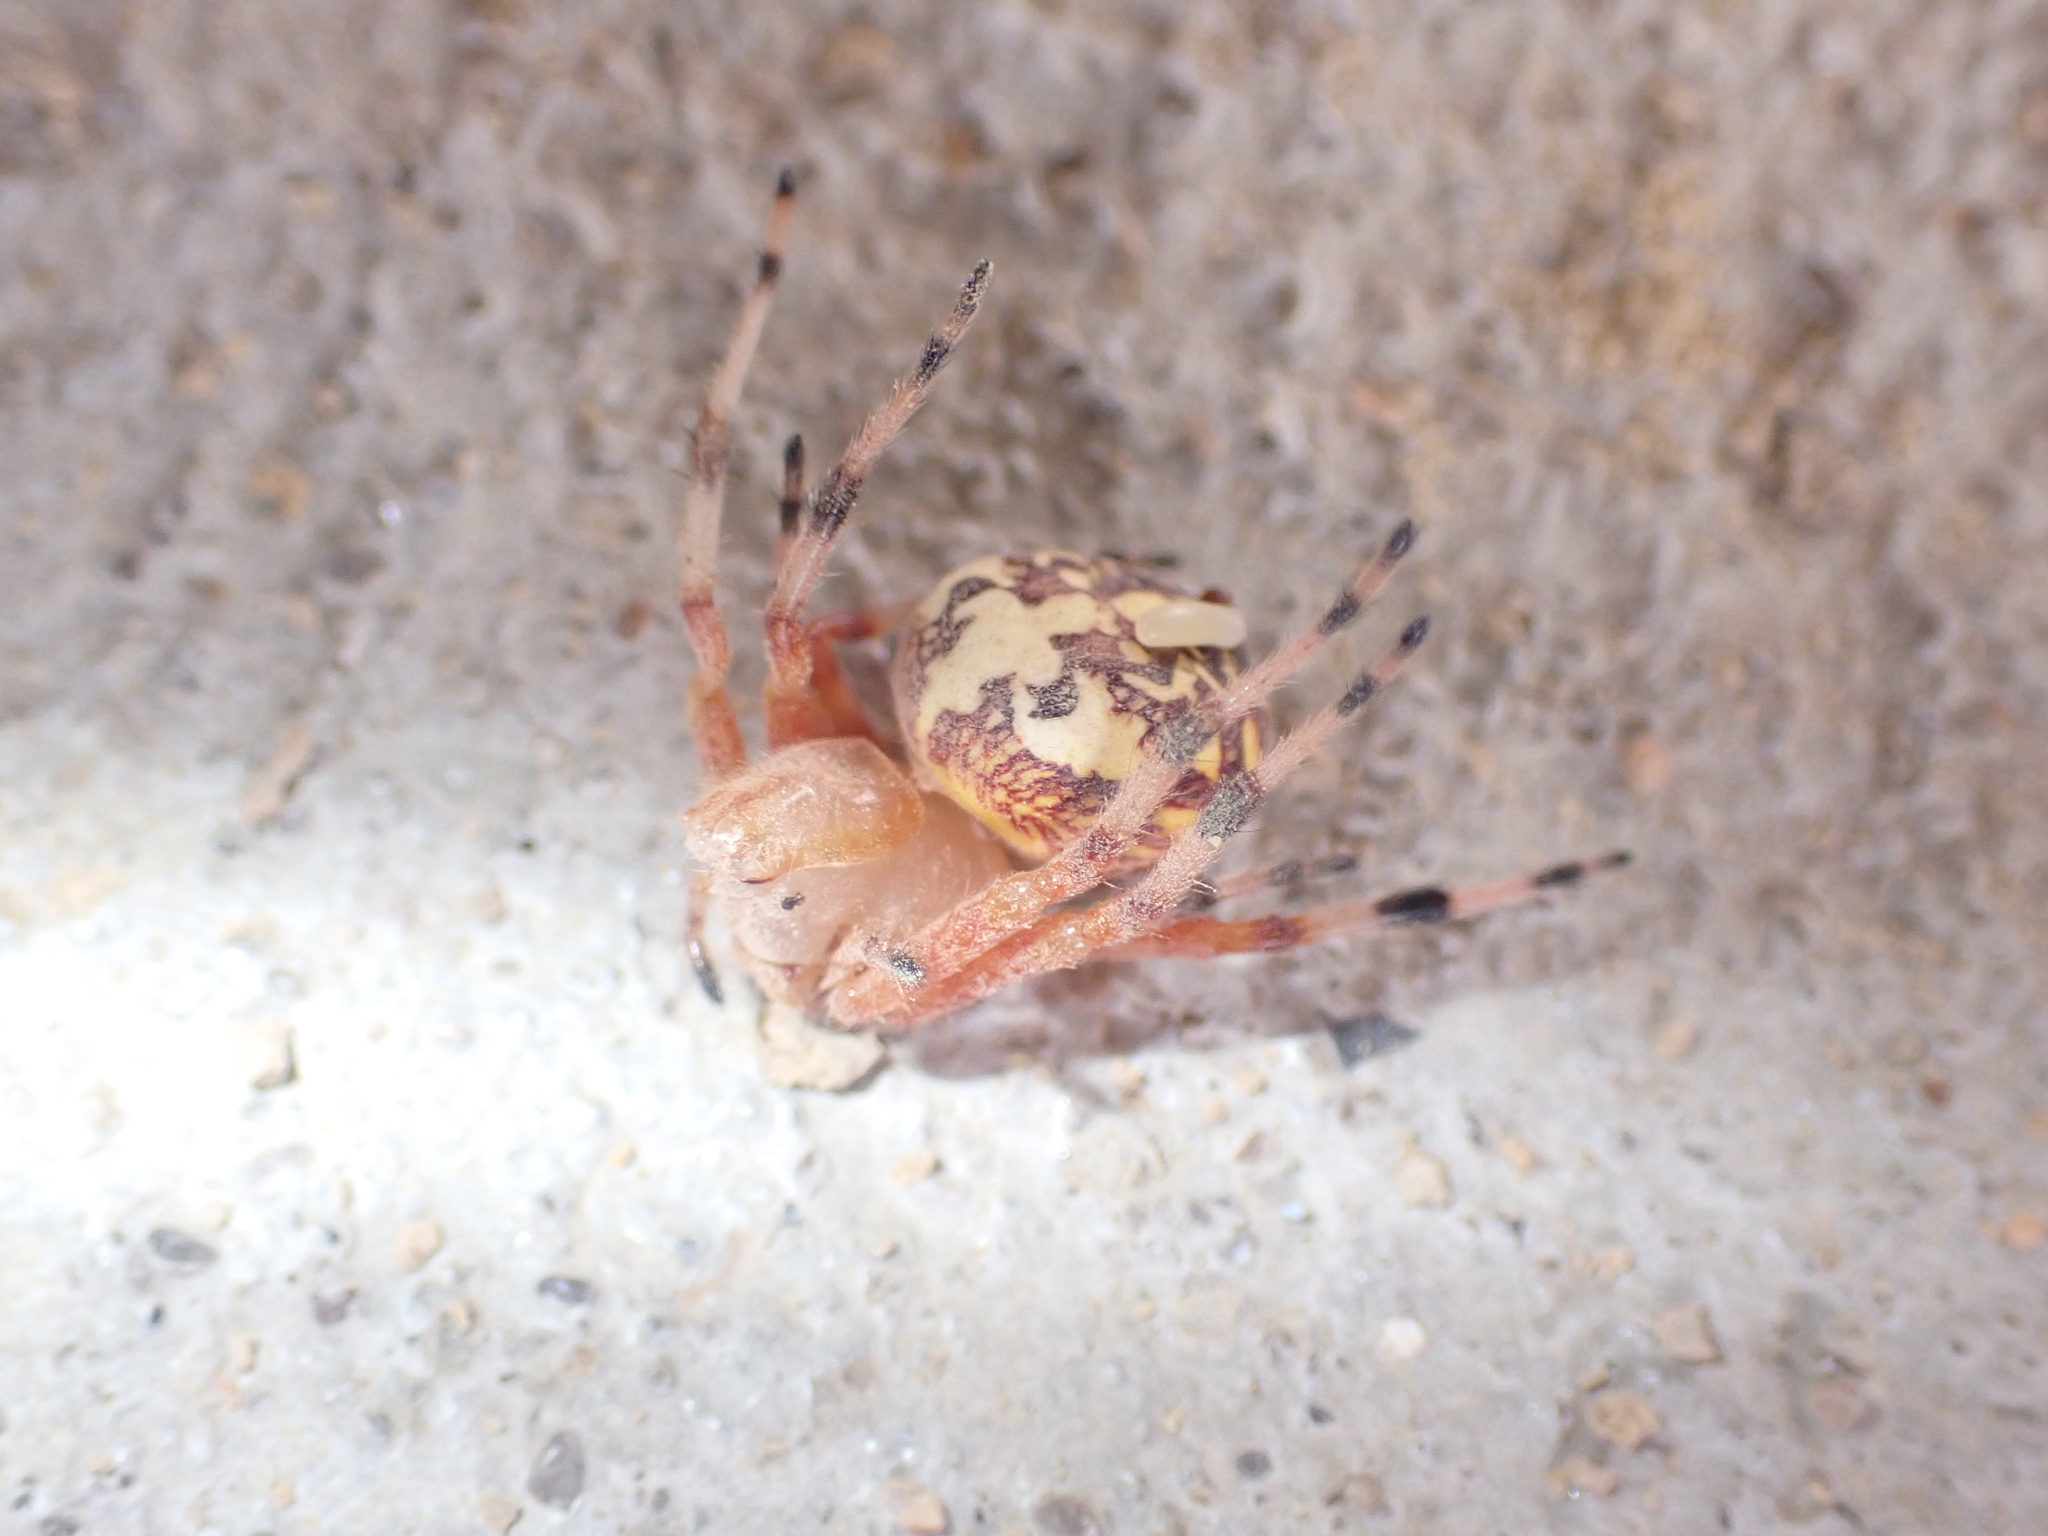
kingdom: Animalia
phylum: Arthropoda
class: Arachnida
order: Araneae
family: Araneidae
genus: Araneus
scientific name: Araneus marmoreus
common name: Marbled orbweaver
